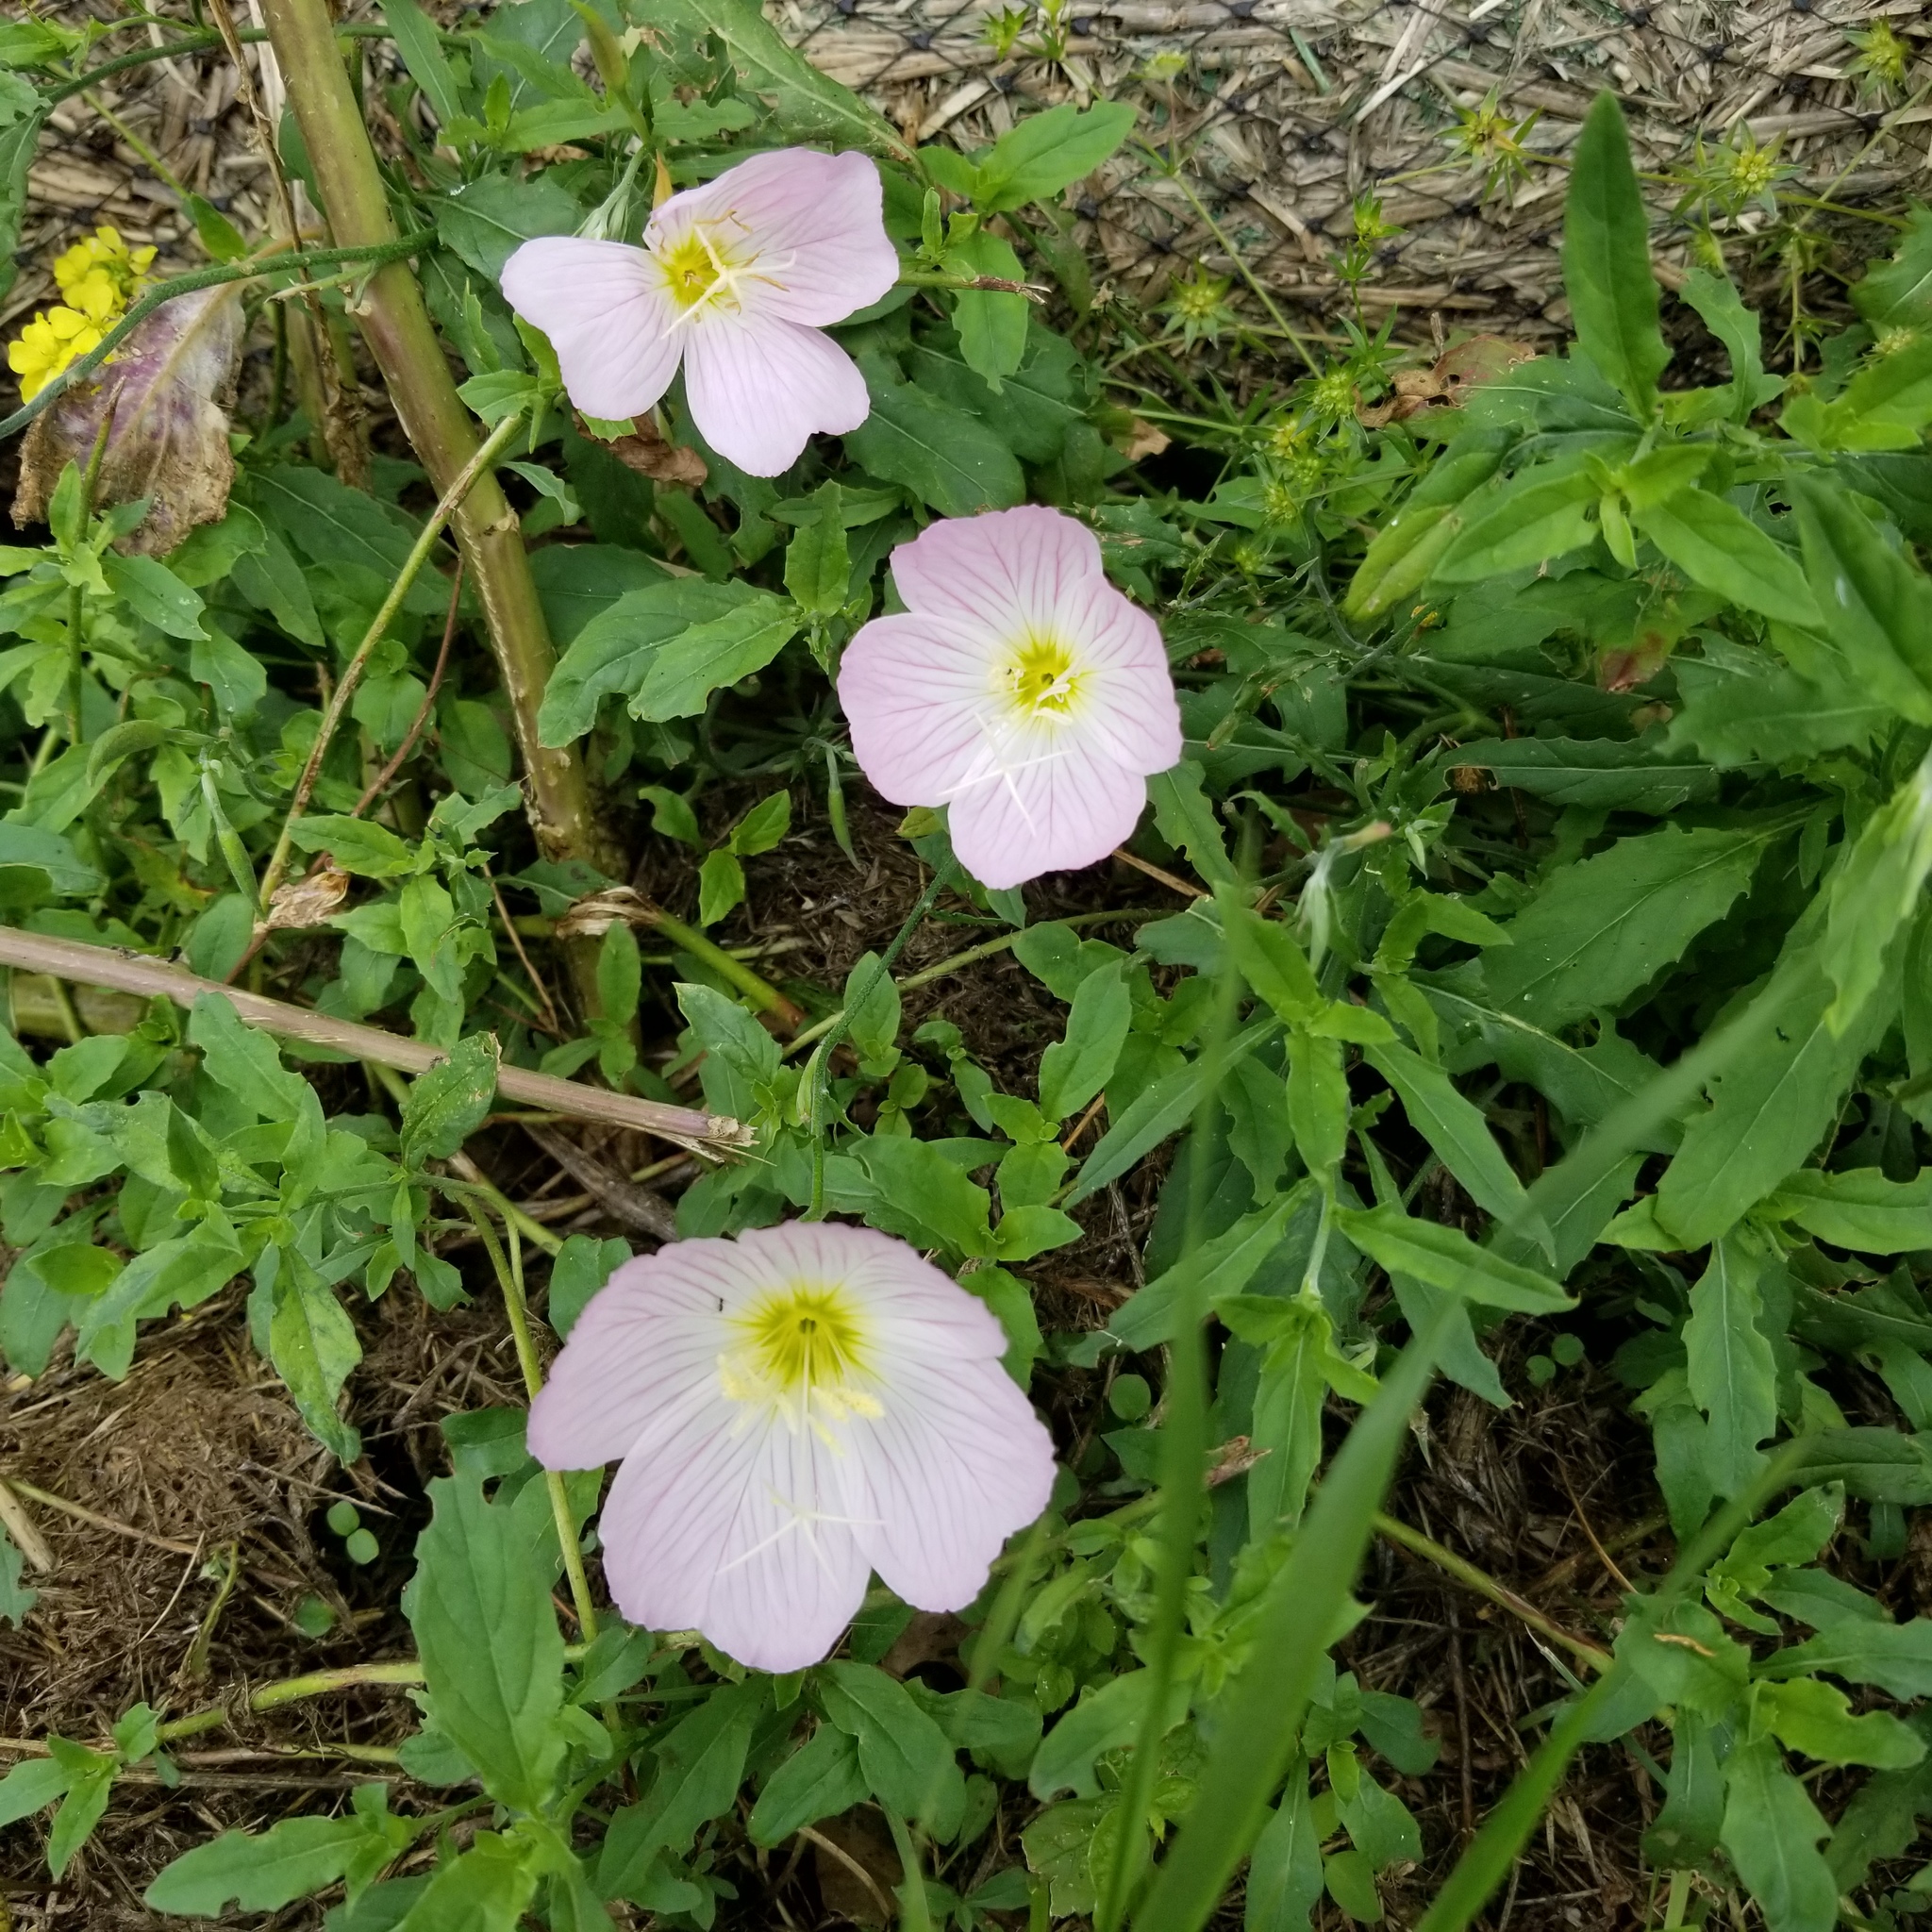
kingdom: Plantae
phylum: Tracheophyta
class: Magnoliopsida
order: Myrtales
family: Onagraceae
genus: Oenothera
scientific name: Oenothera speciosa
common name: White evening-primrose
